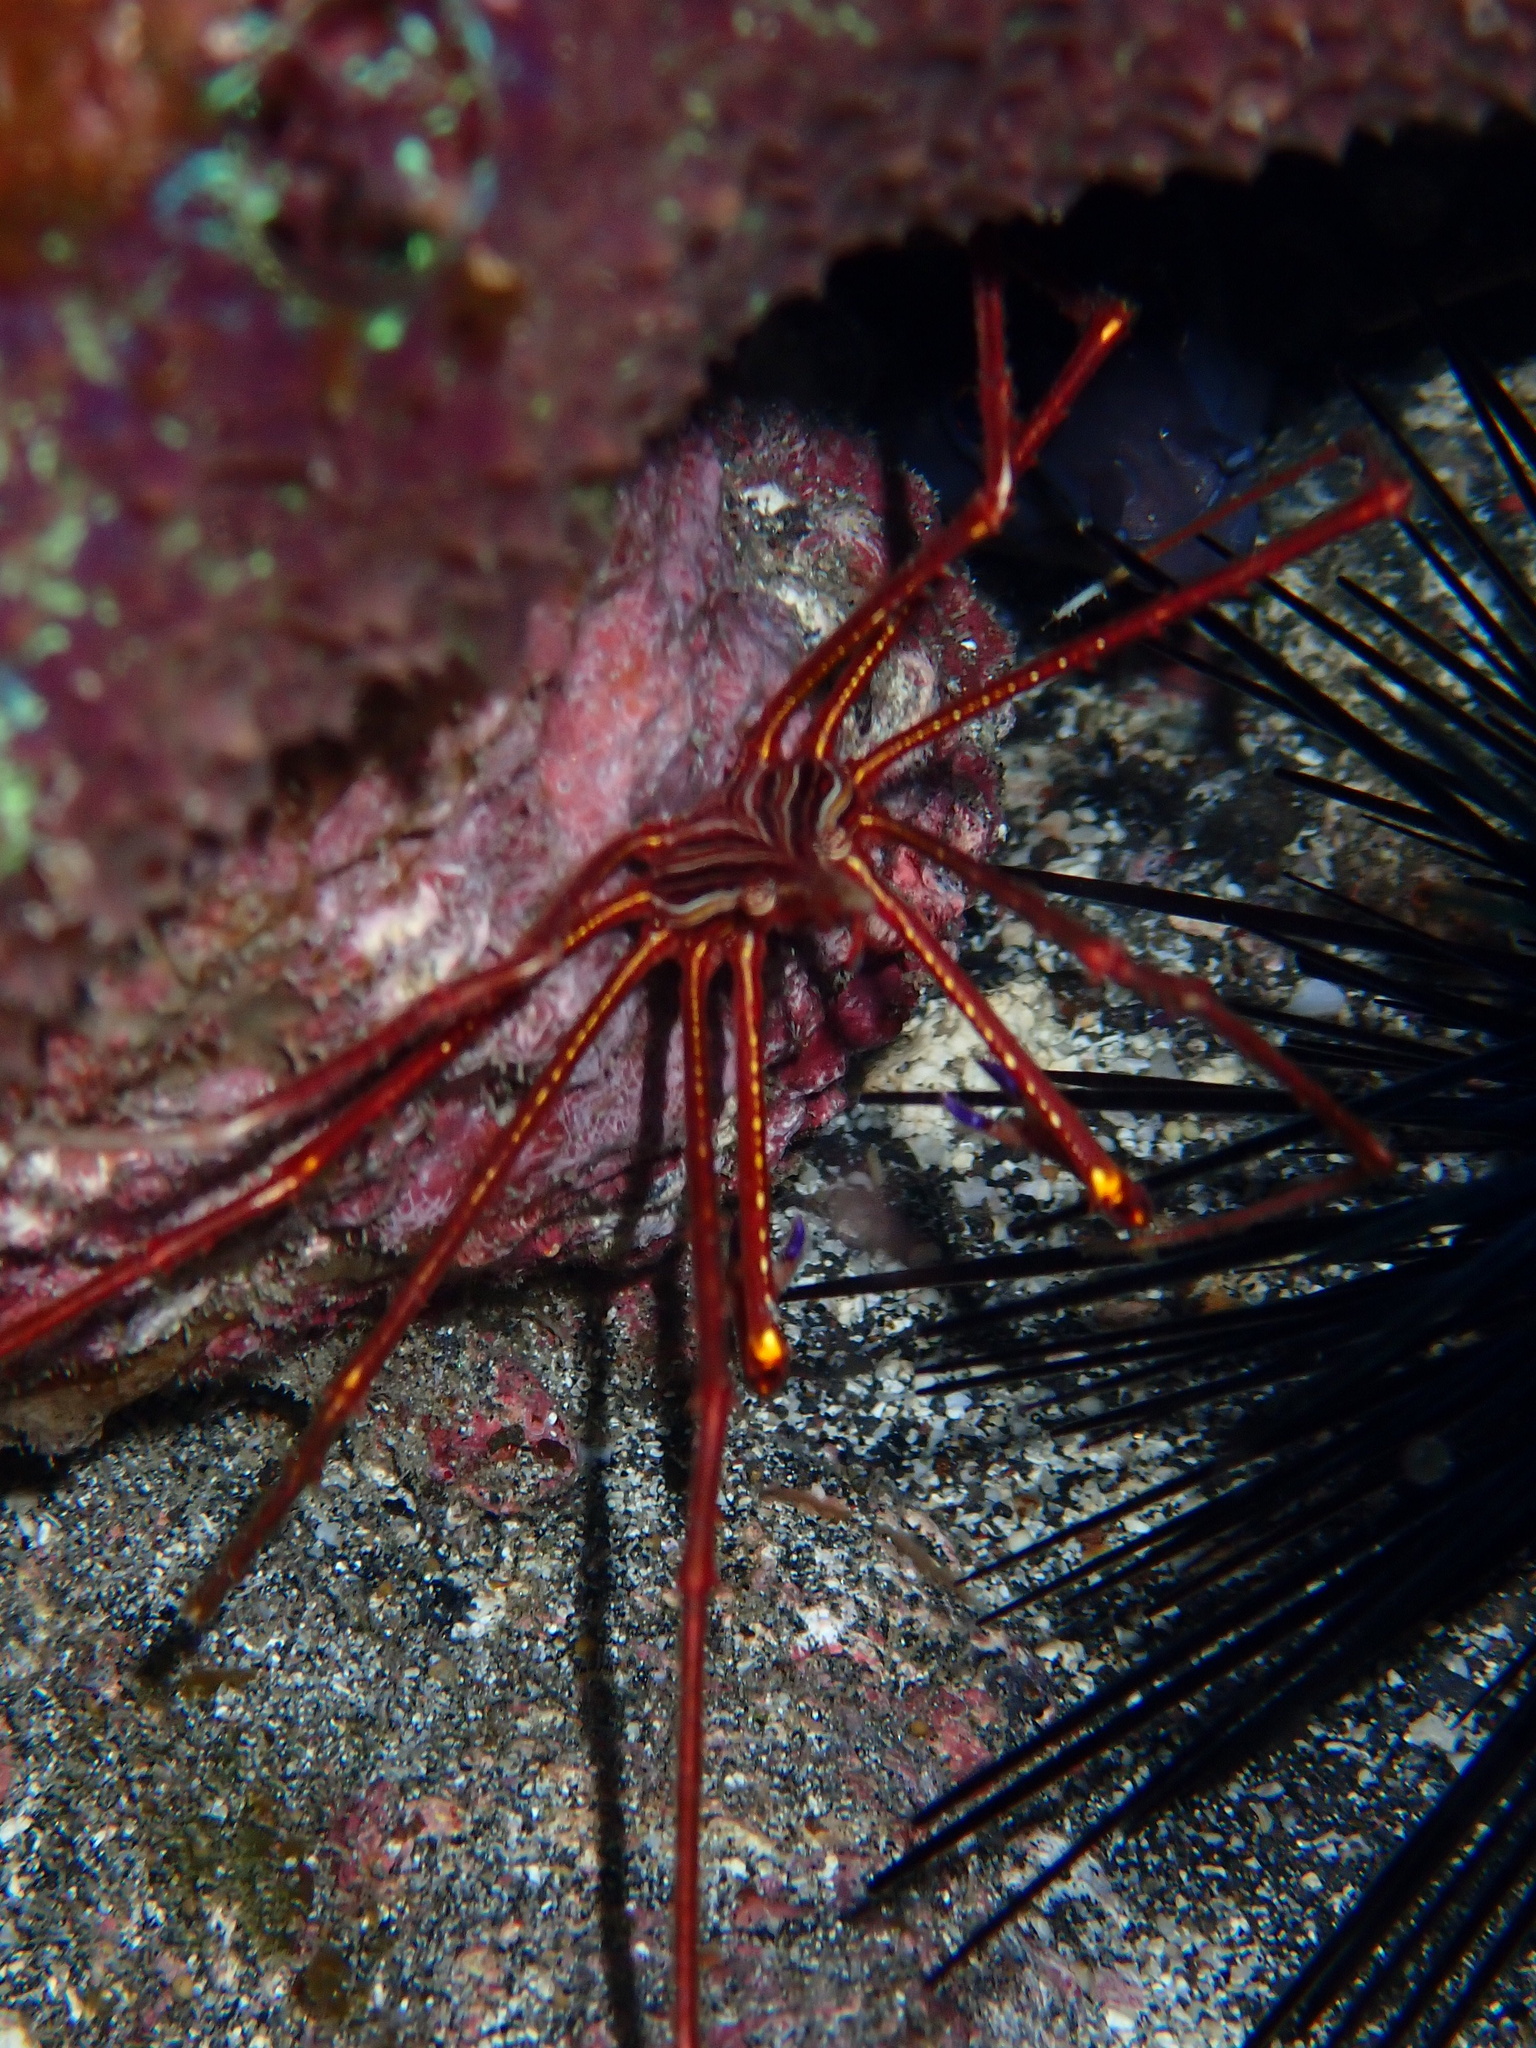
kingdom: Animalia
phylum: Arthropoda
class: Malacostraca
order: Decapoda
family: Inachoididae
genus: Stenorhynchus
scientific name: Stenorhynchus lanceolatus
